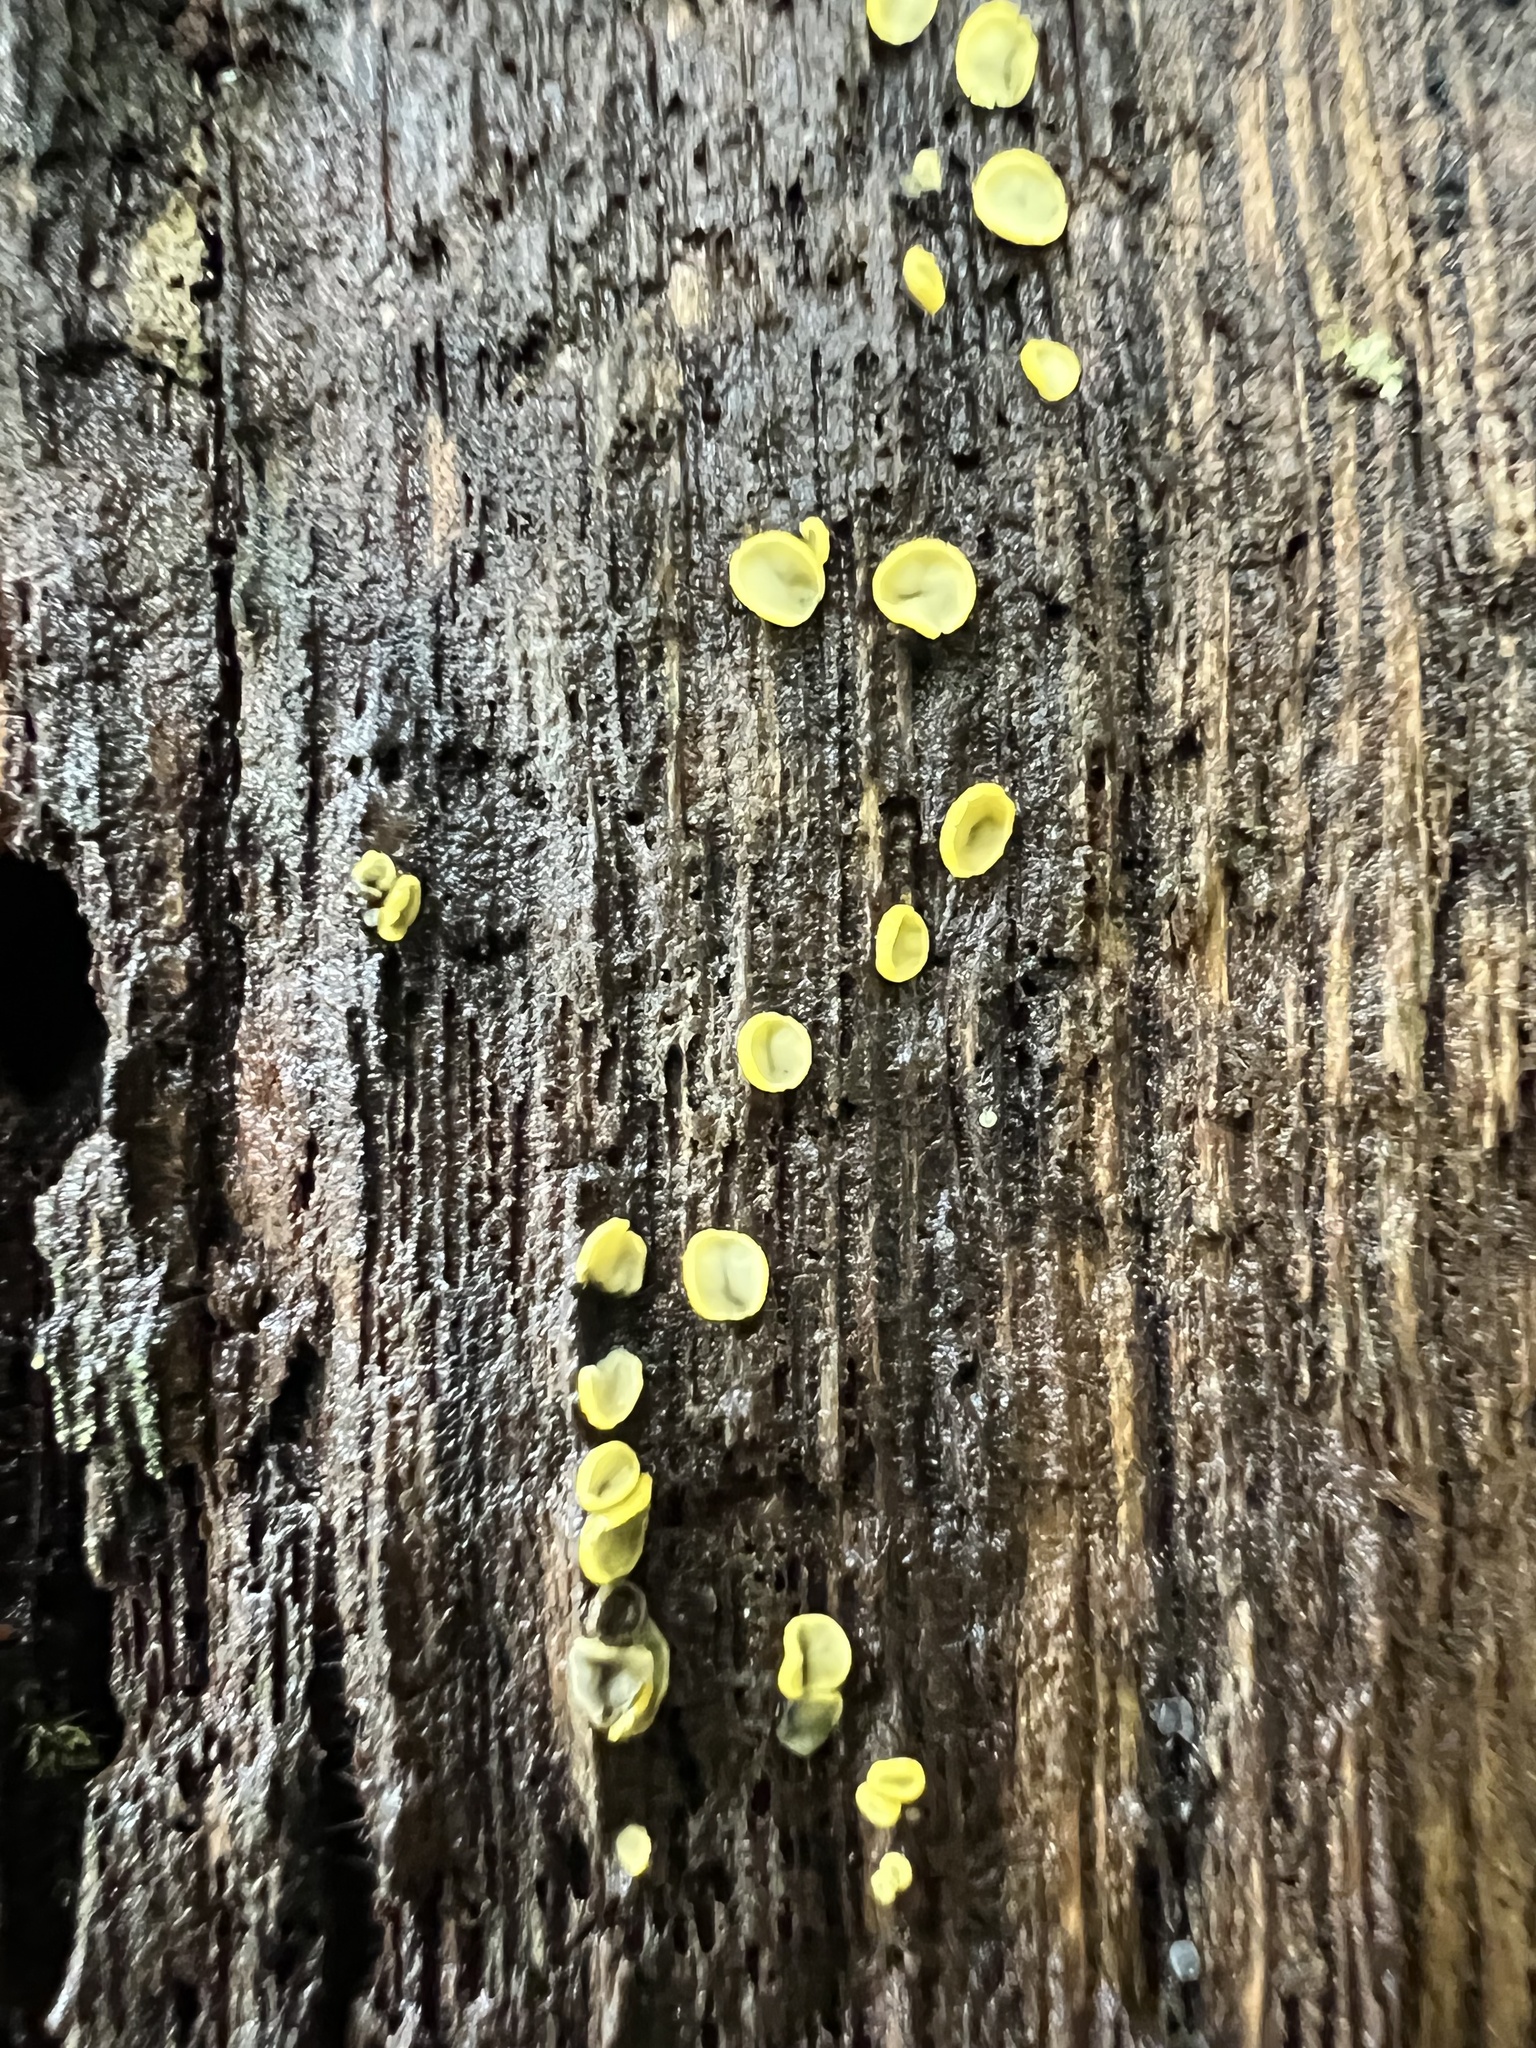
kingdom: Fungi
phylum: Ascomycota
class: Leotiomycetes
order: Helotiales
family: Chlorospleniaceae
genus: Chlorosplenium
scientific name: Chlorosplenium chlora
